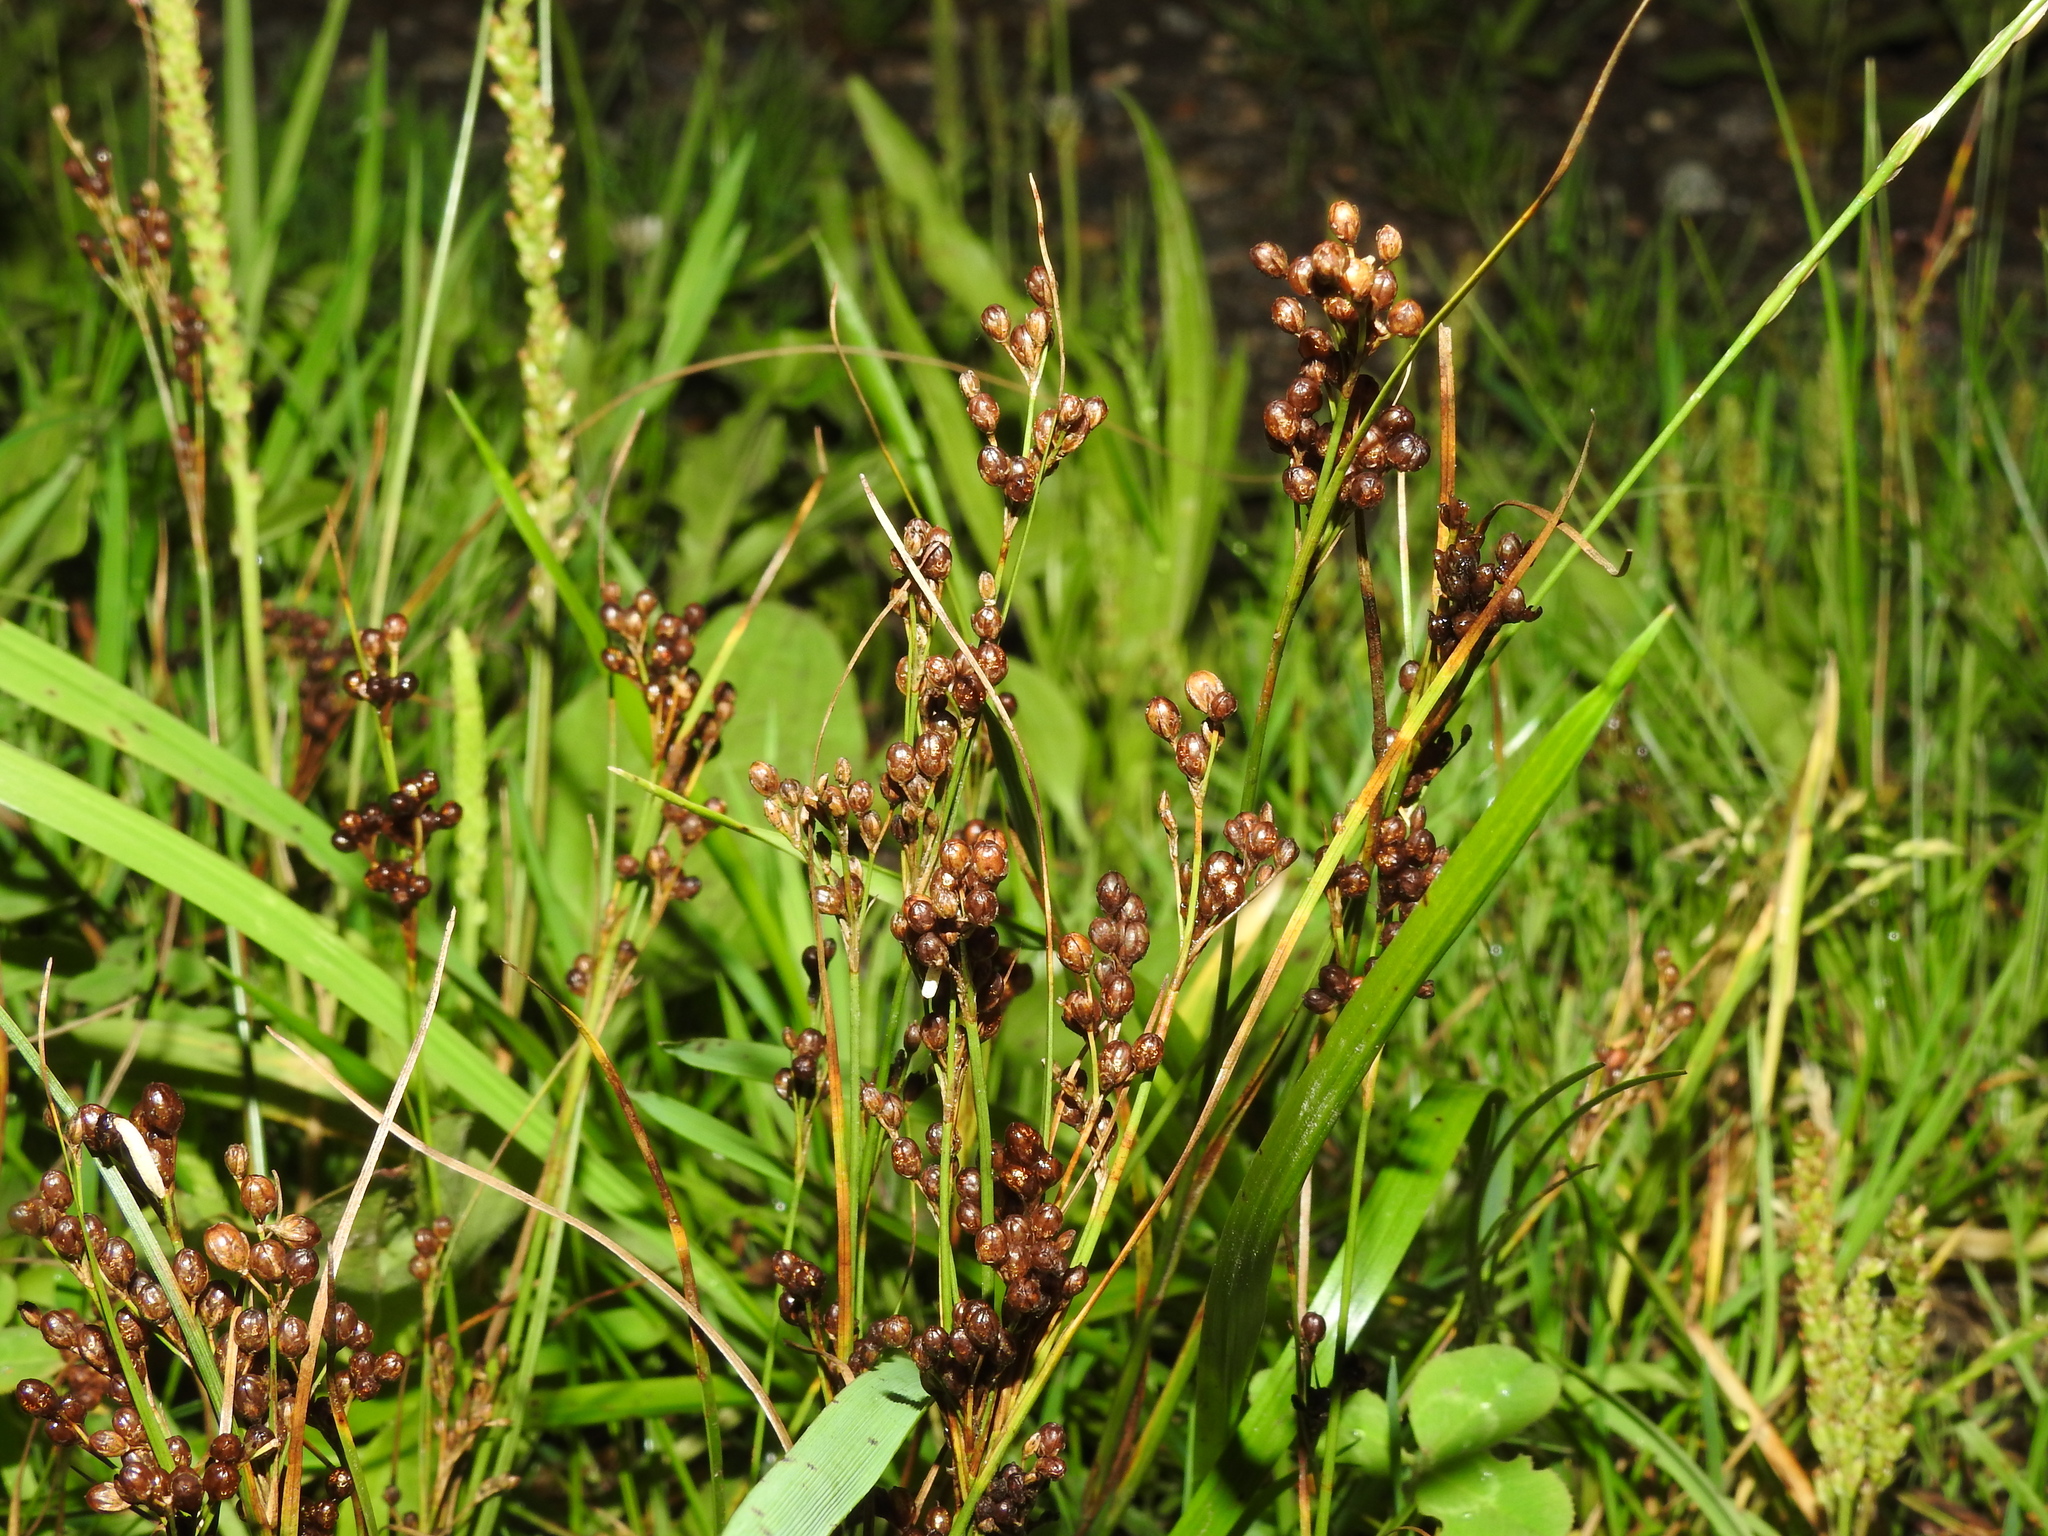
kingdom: Plantae
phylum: Tracheophyta
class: Liliopsida
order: Poales
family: Juncaceae
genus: Juncus
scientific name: Juncus compressus
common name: Round-fruited rush
